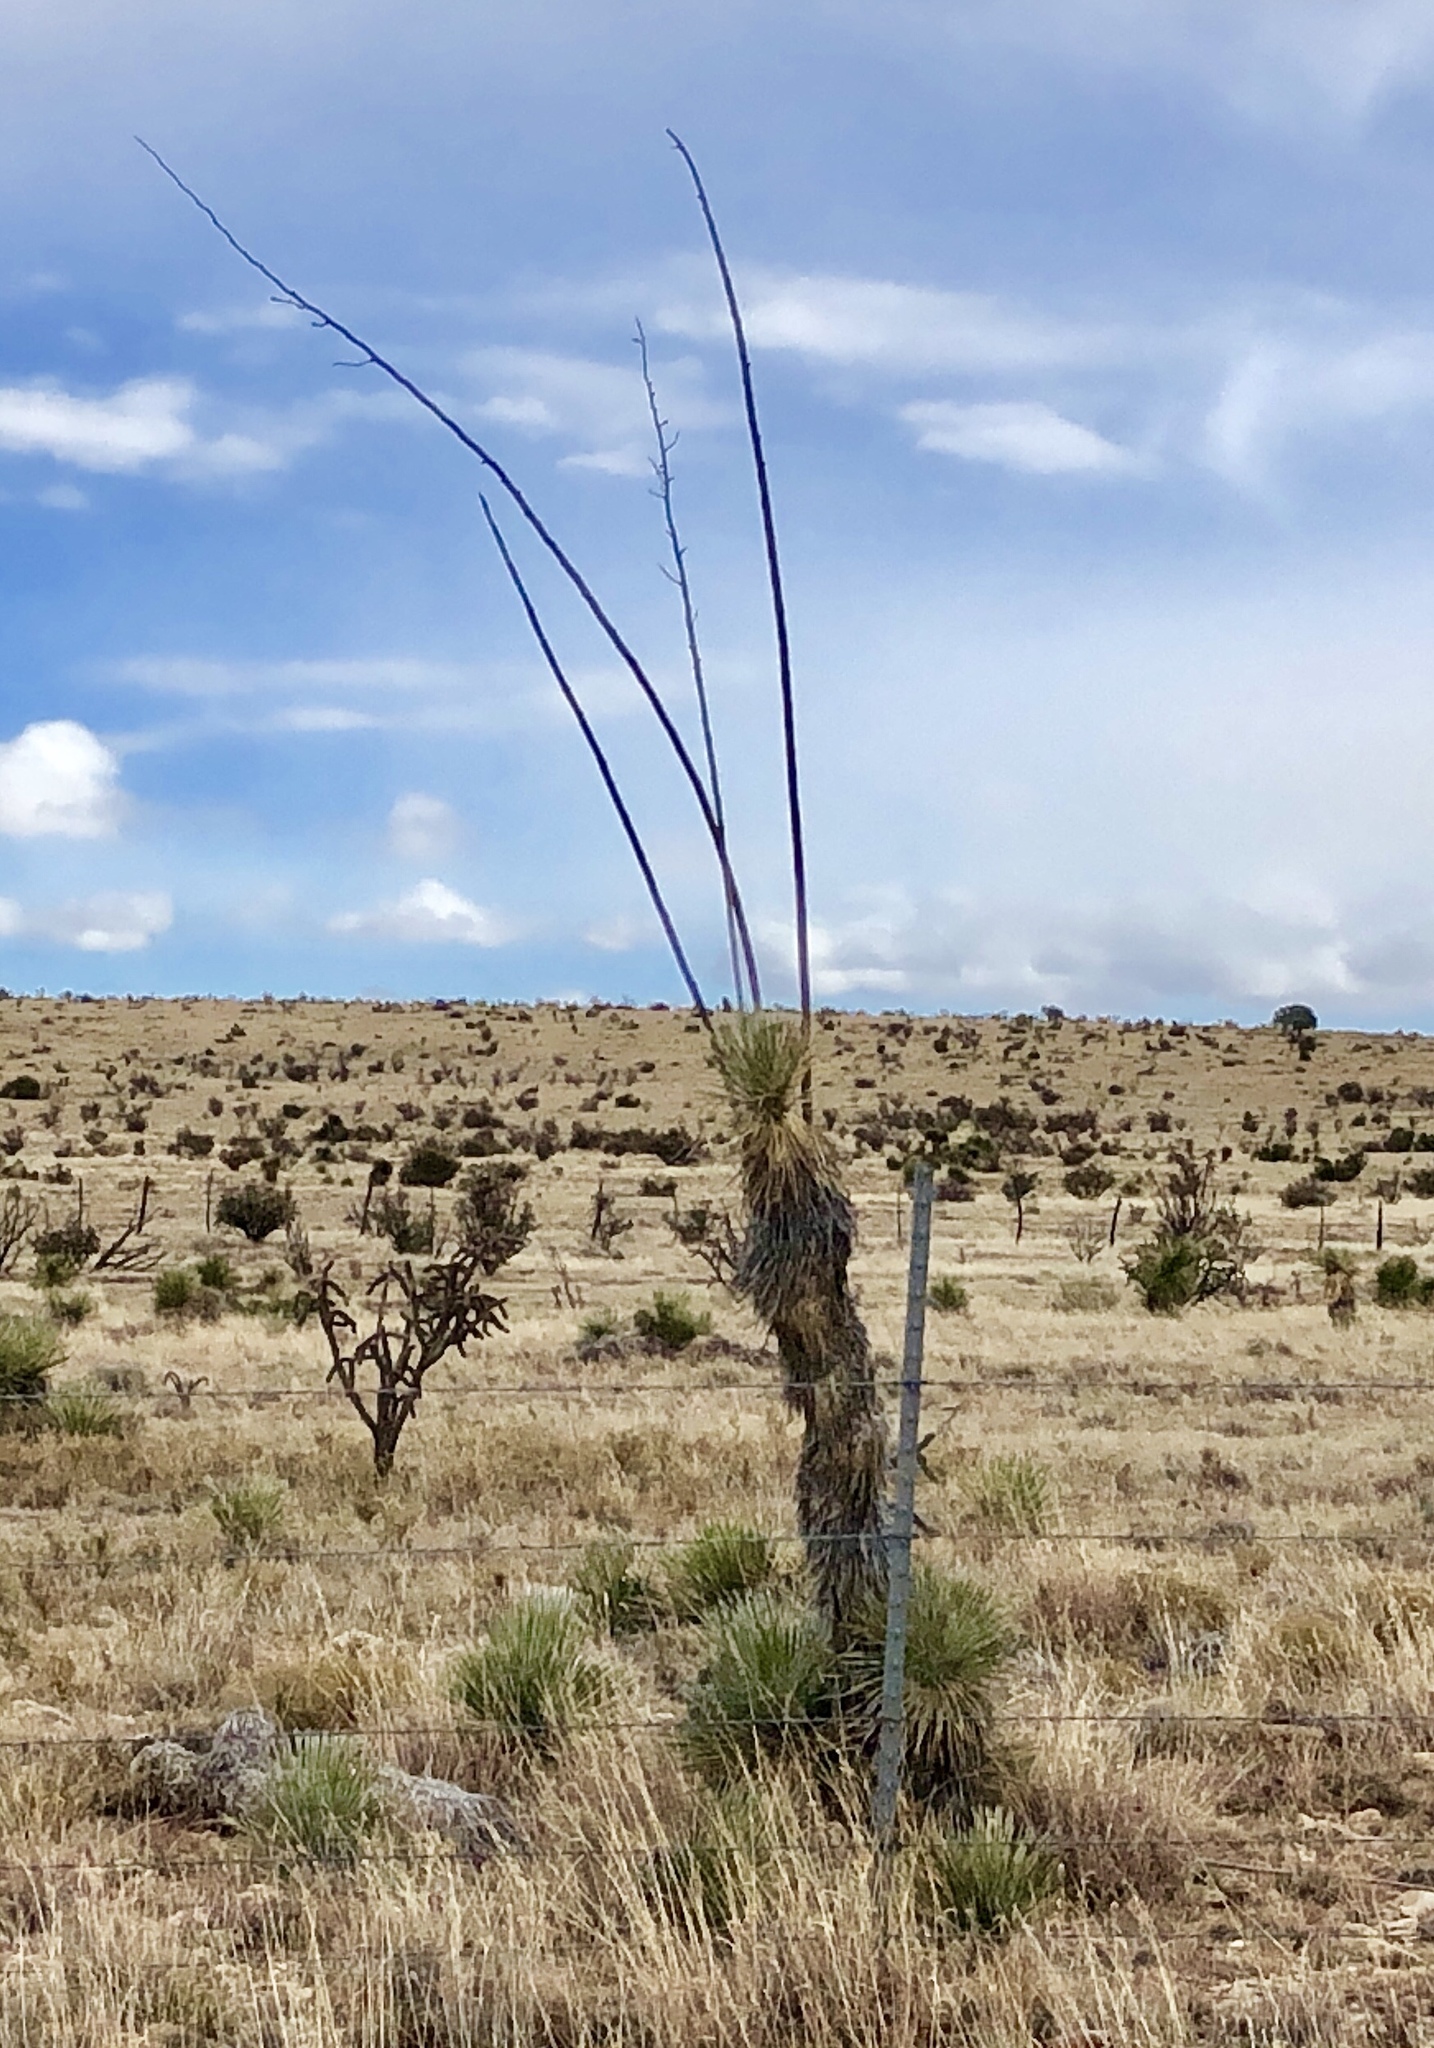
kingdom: Plantae
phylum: Tracheophyta
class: Liliopsida
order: Asparagales
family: Asparagaceae
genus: Yucca
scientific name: Yucca elata
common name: Palmella
